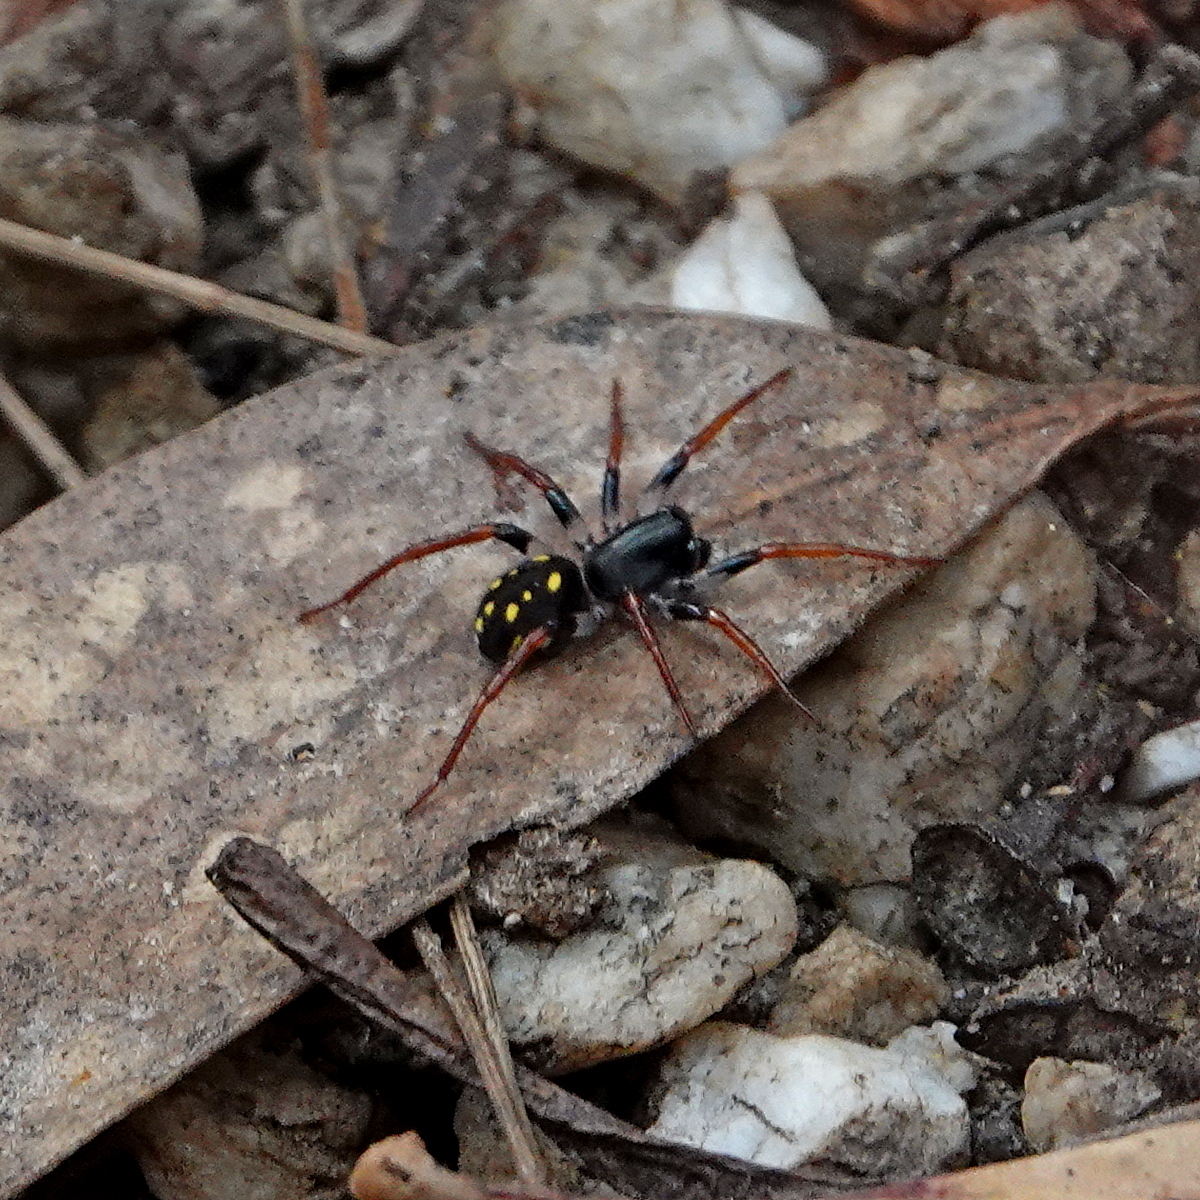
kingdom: Animalia
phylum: Arthropoda
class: Arachnida
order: Araneae
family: Zodariidae
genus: Habronestes
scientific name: Habronestes hunti
